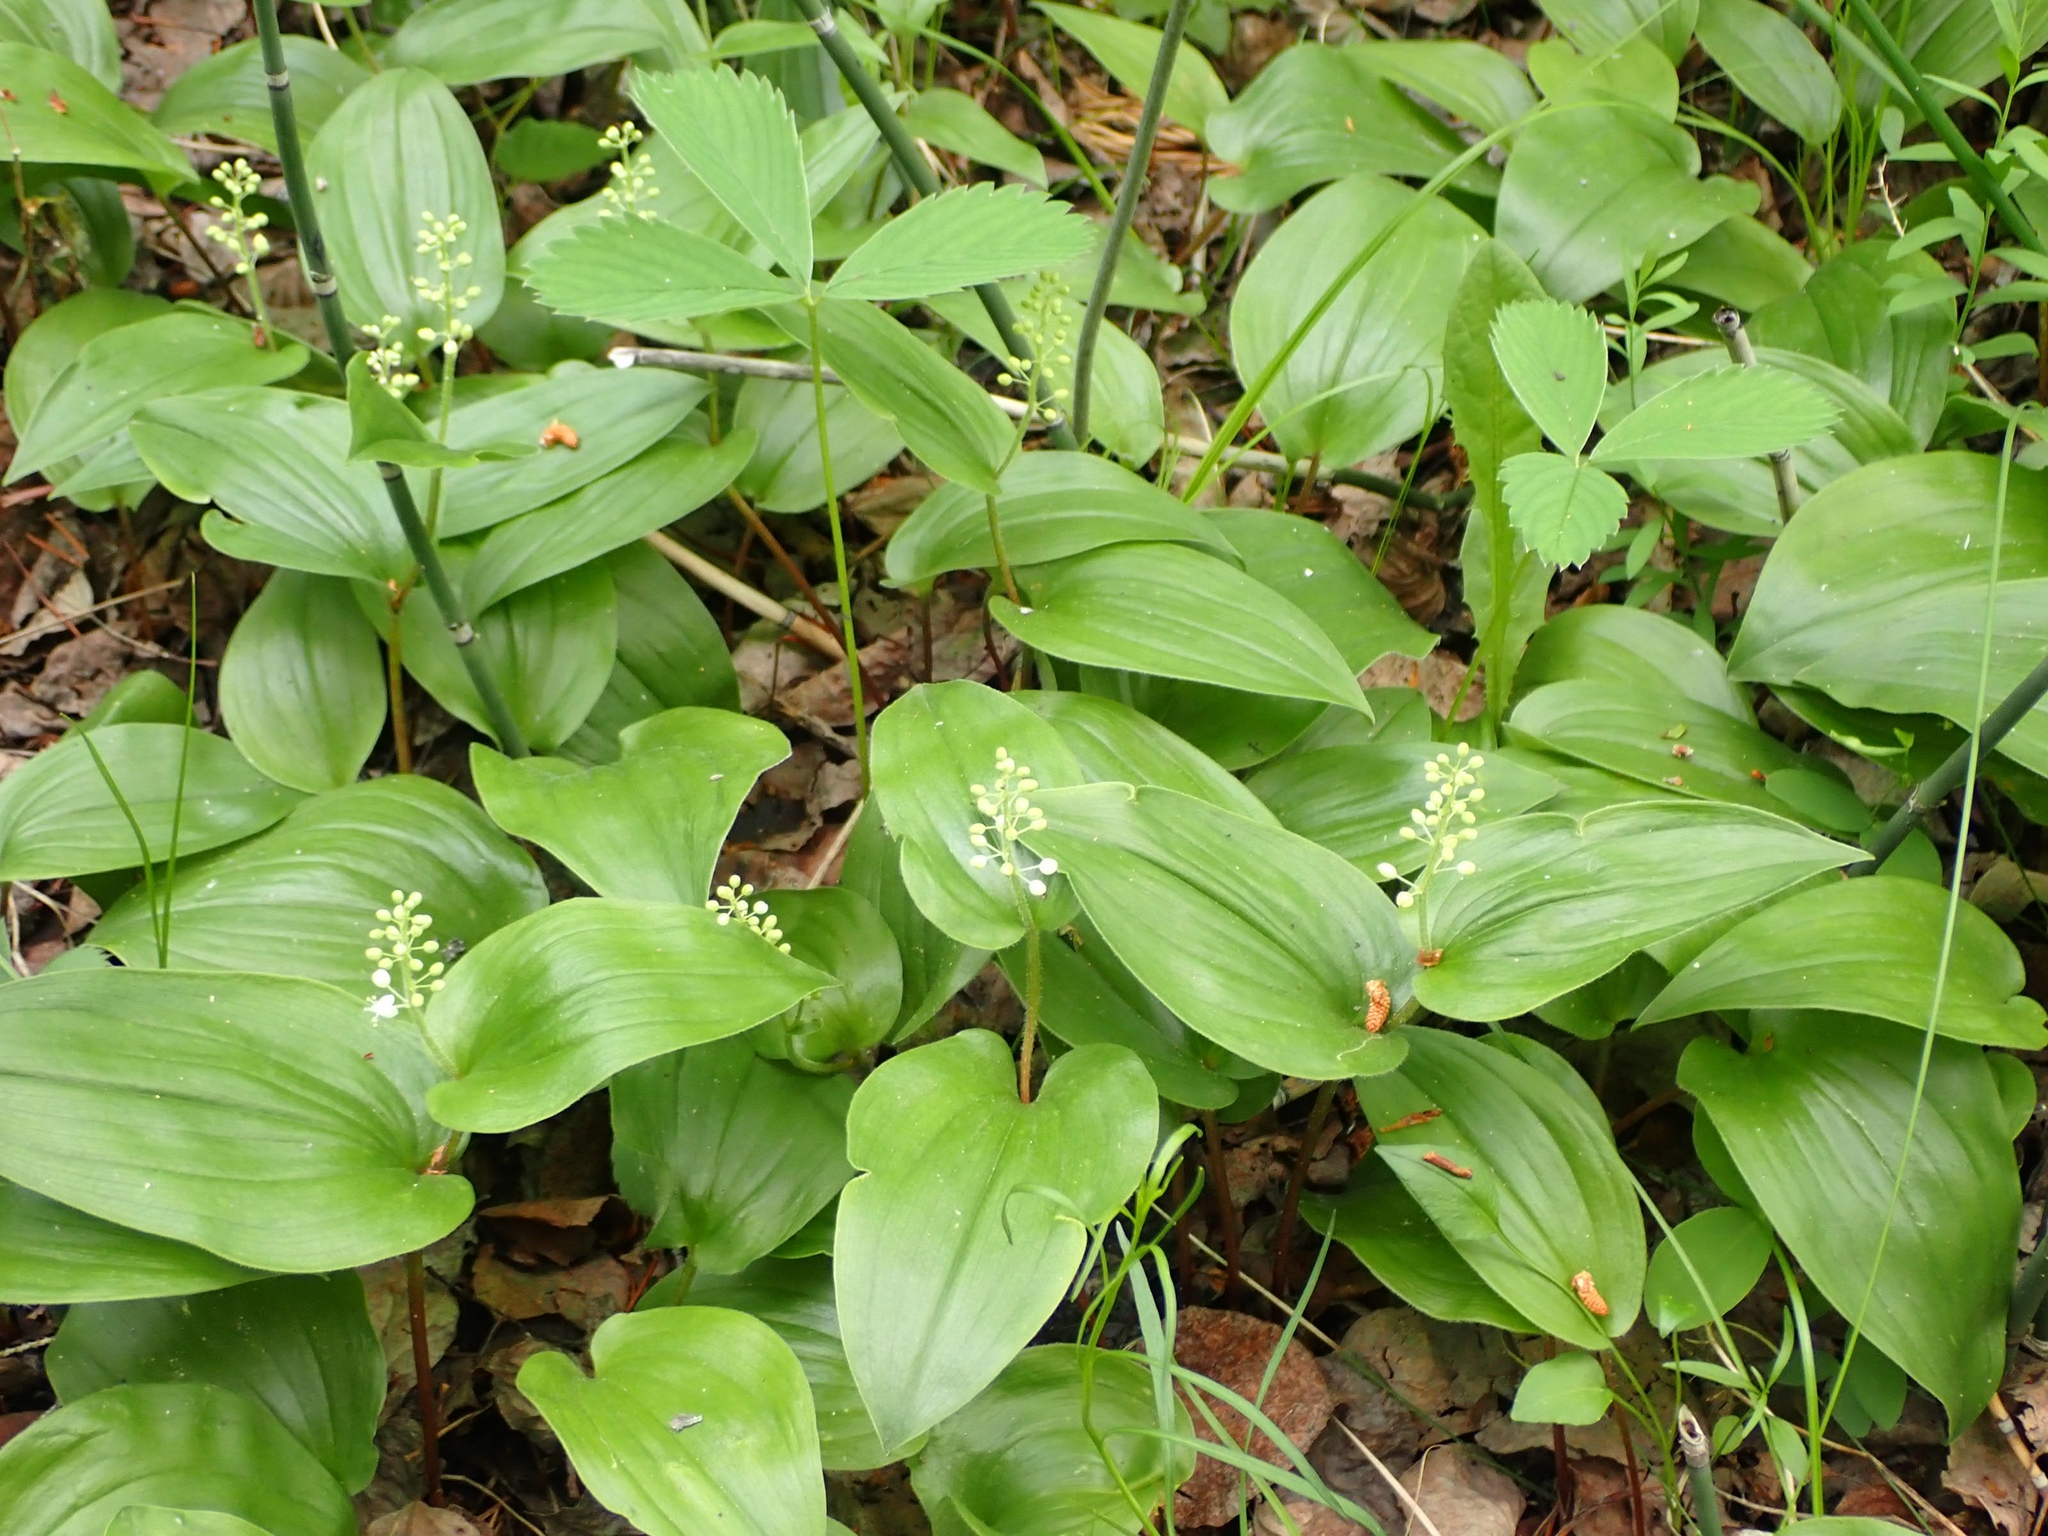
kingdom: Plantae
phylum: Tracheophyta
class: Liliopsida
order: Asparagales
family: Asparagaceae
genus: Maianthemum
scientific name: Maianthemum canadense
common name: False lily-of-the-valley
